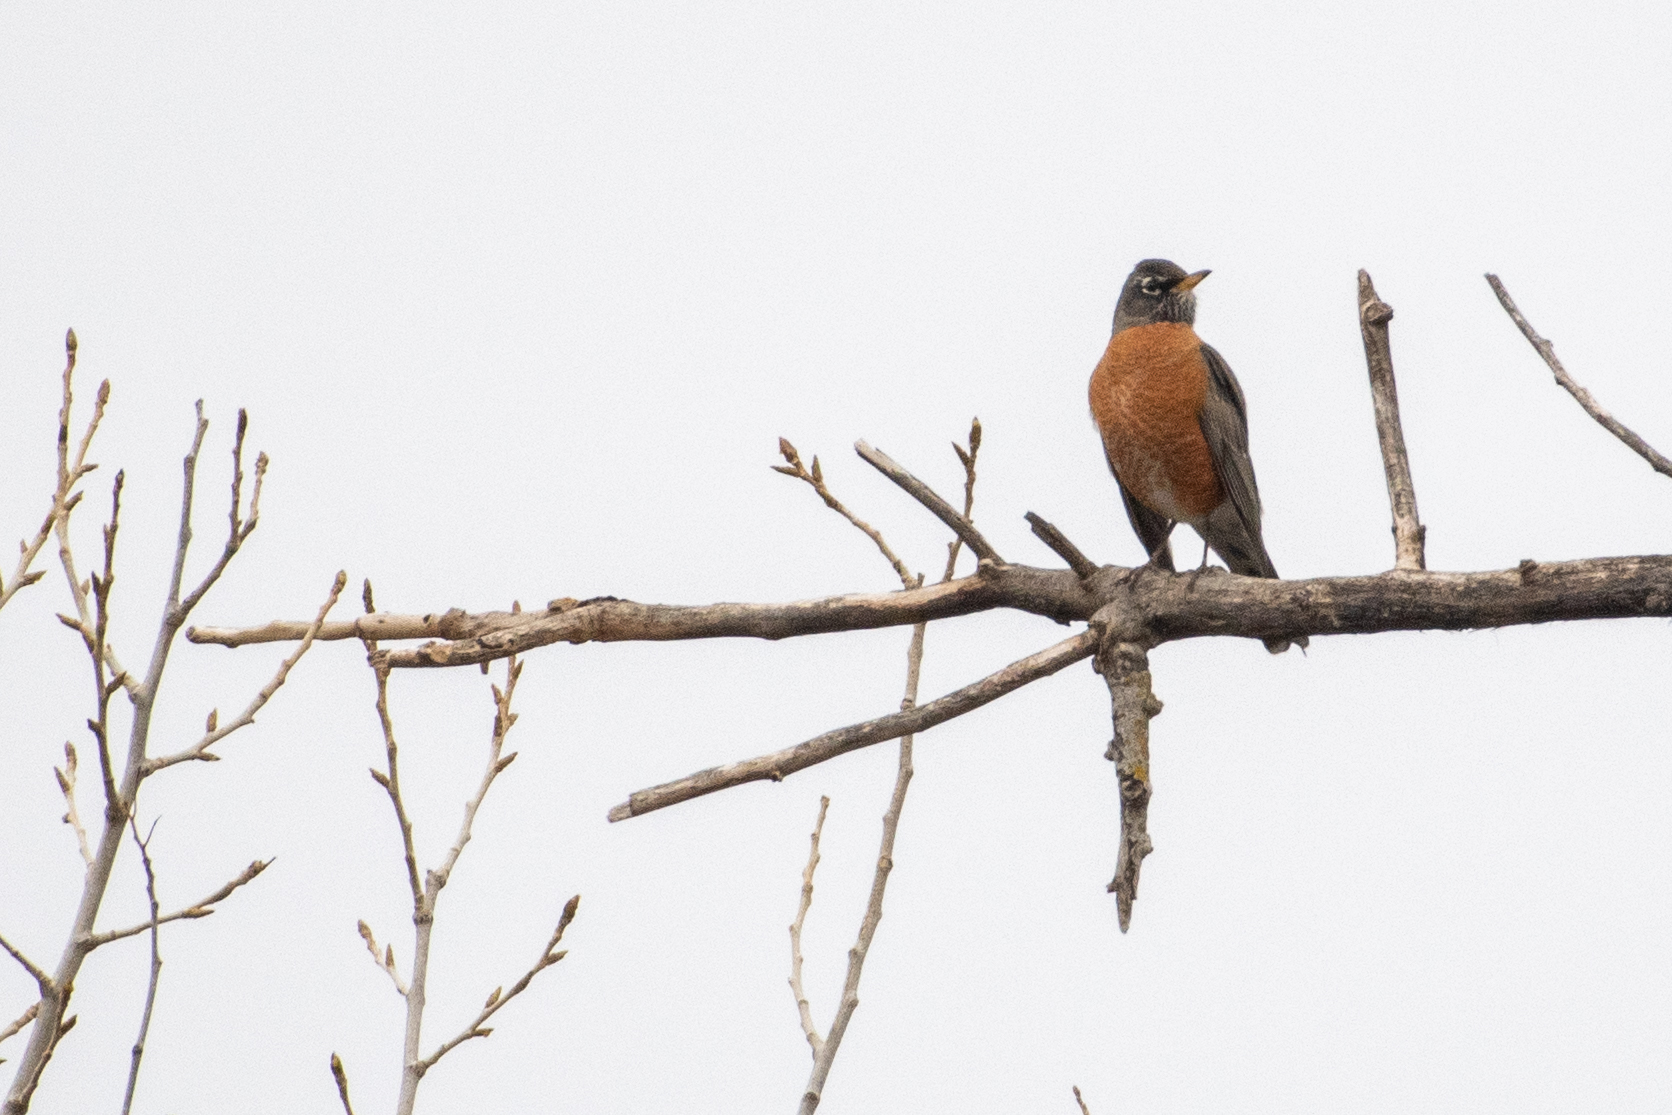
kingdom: Animalia
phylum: Chordata
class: Aves
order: Passeriformes
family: Turdidae
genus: Turdus
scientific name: Turdus migratorius
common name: American robin
